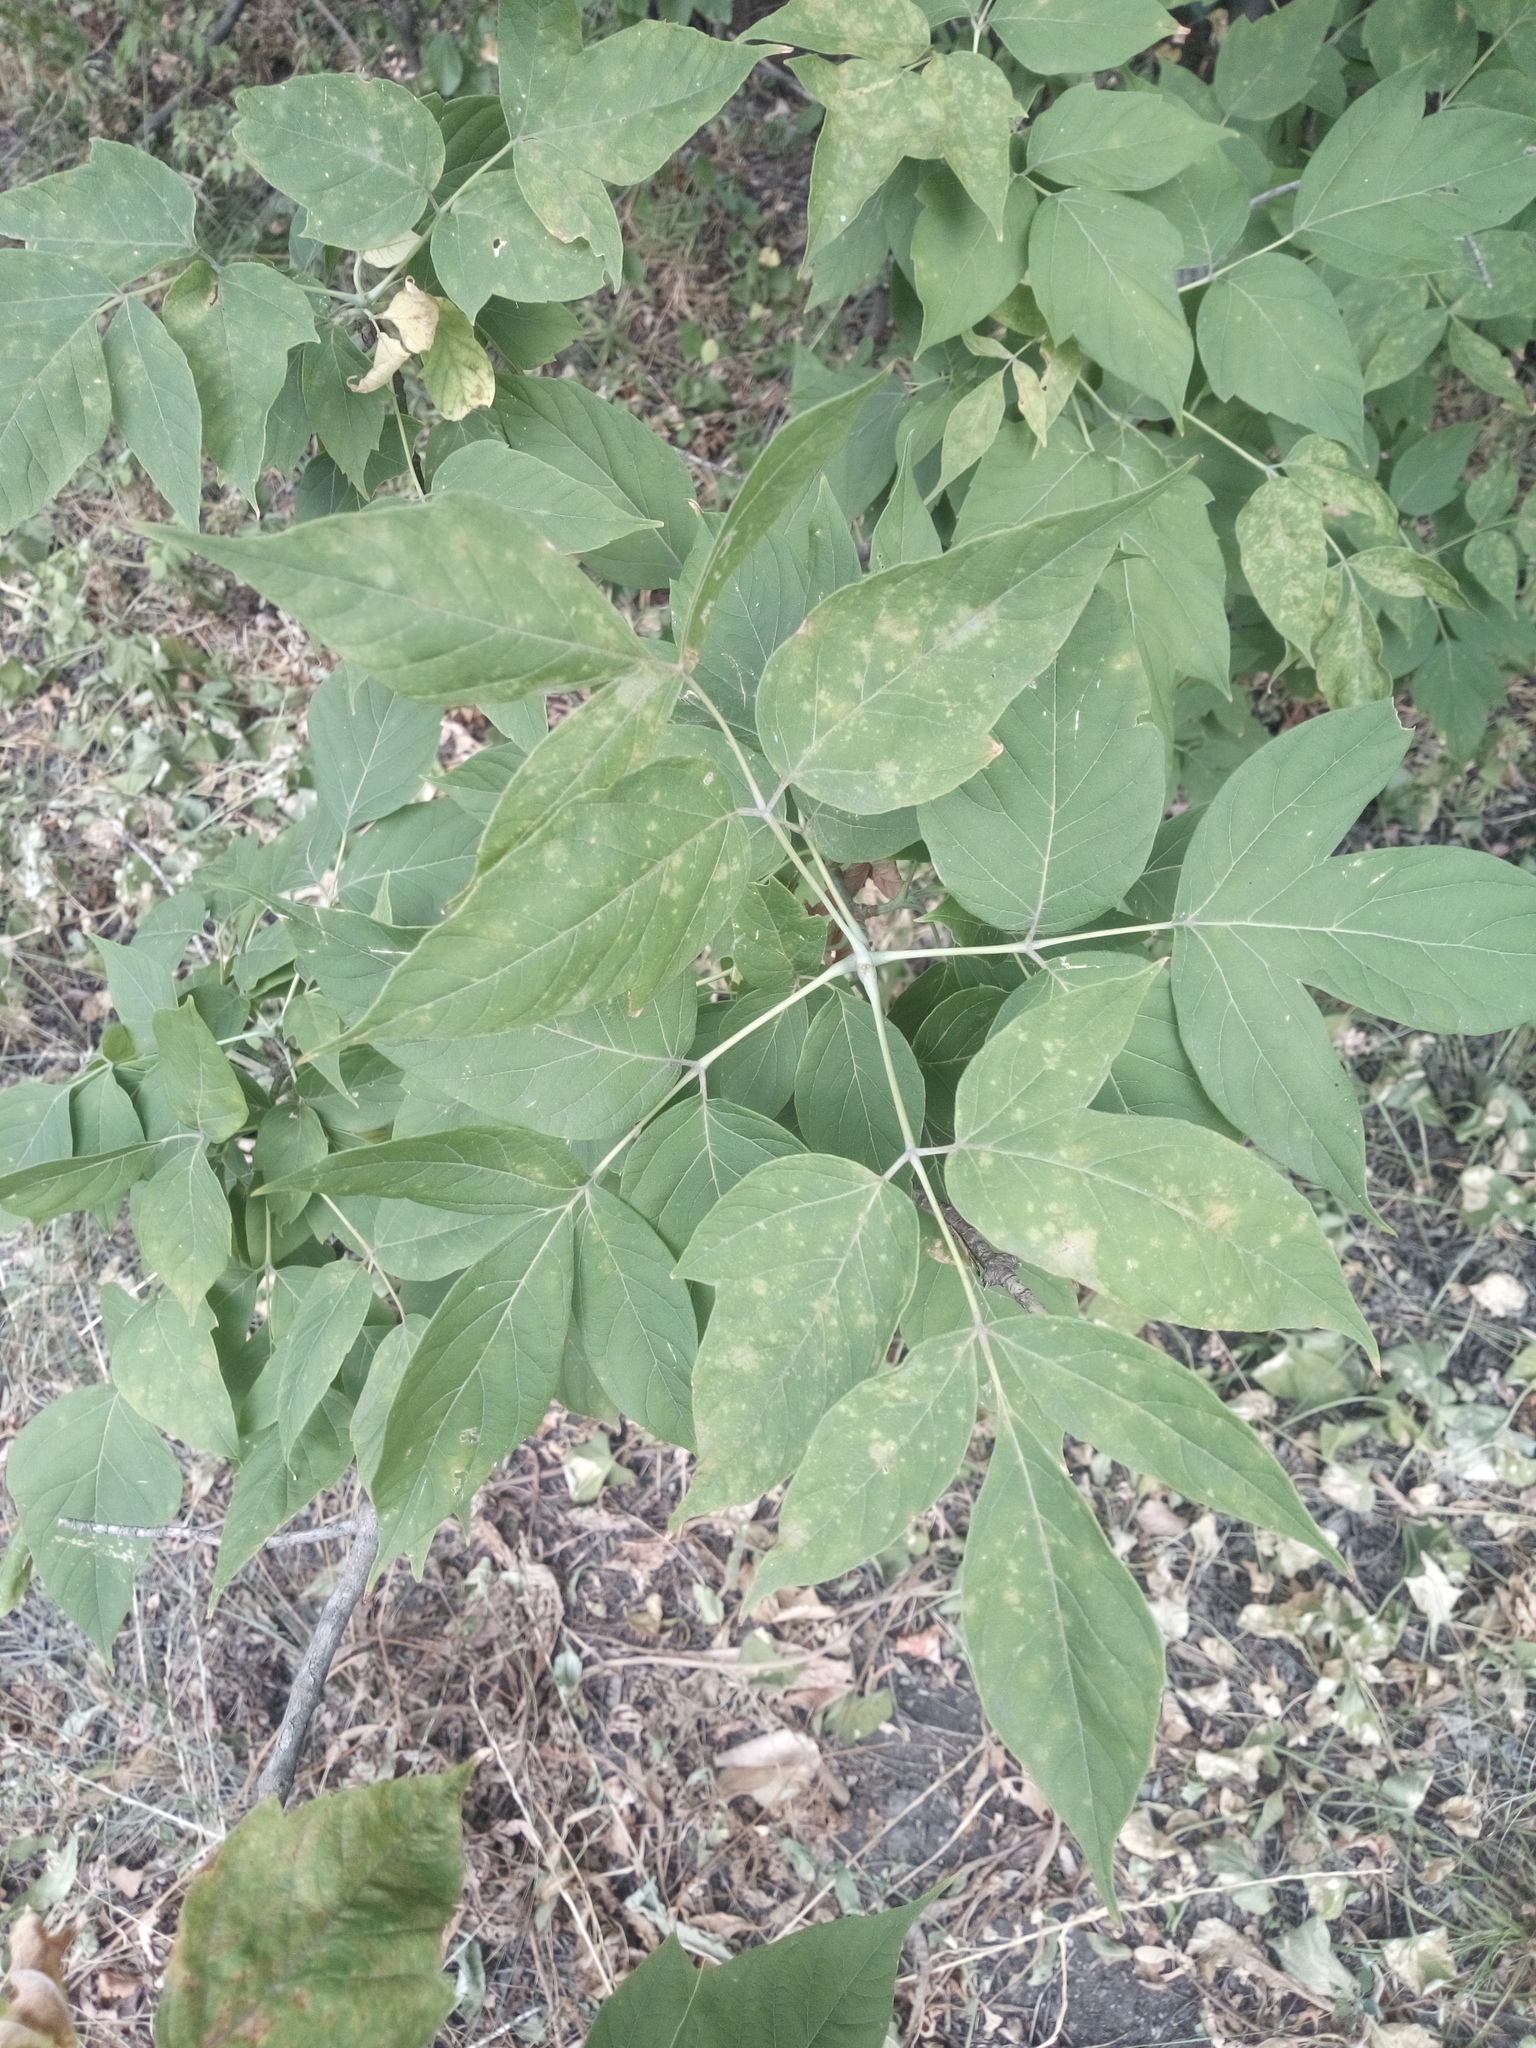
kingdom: Plantae
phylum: Tracheophyta
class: Magnoliopsida
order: Sapindales
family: Sapindaceae
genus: Acer
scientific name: Acer negundo
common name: Ashleaf maple
